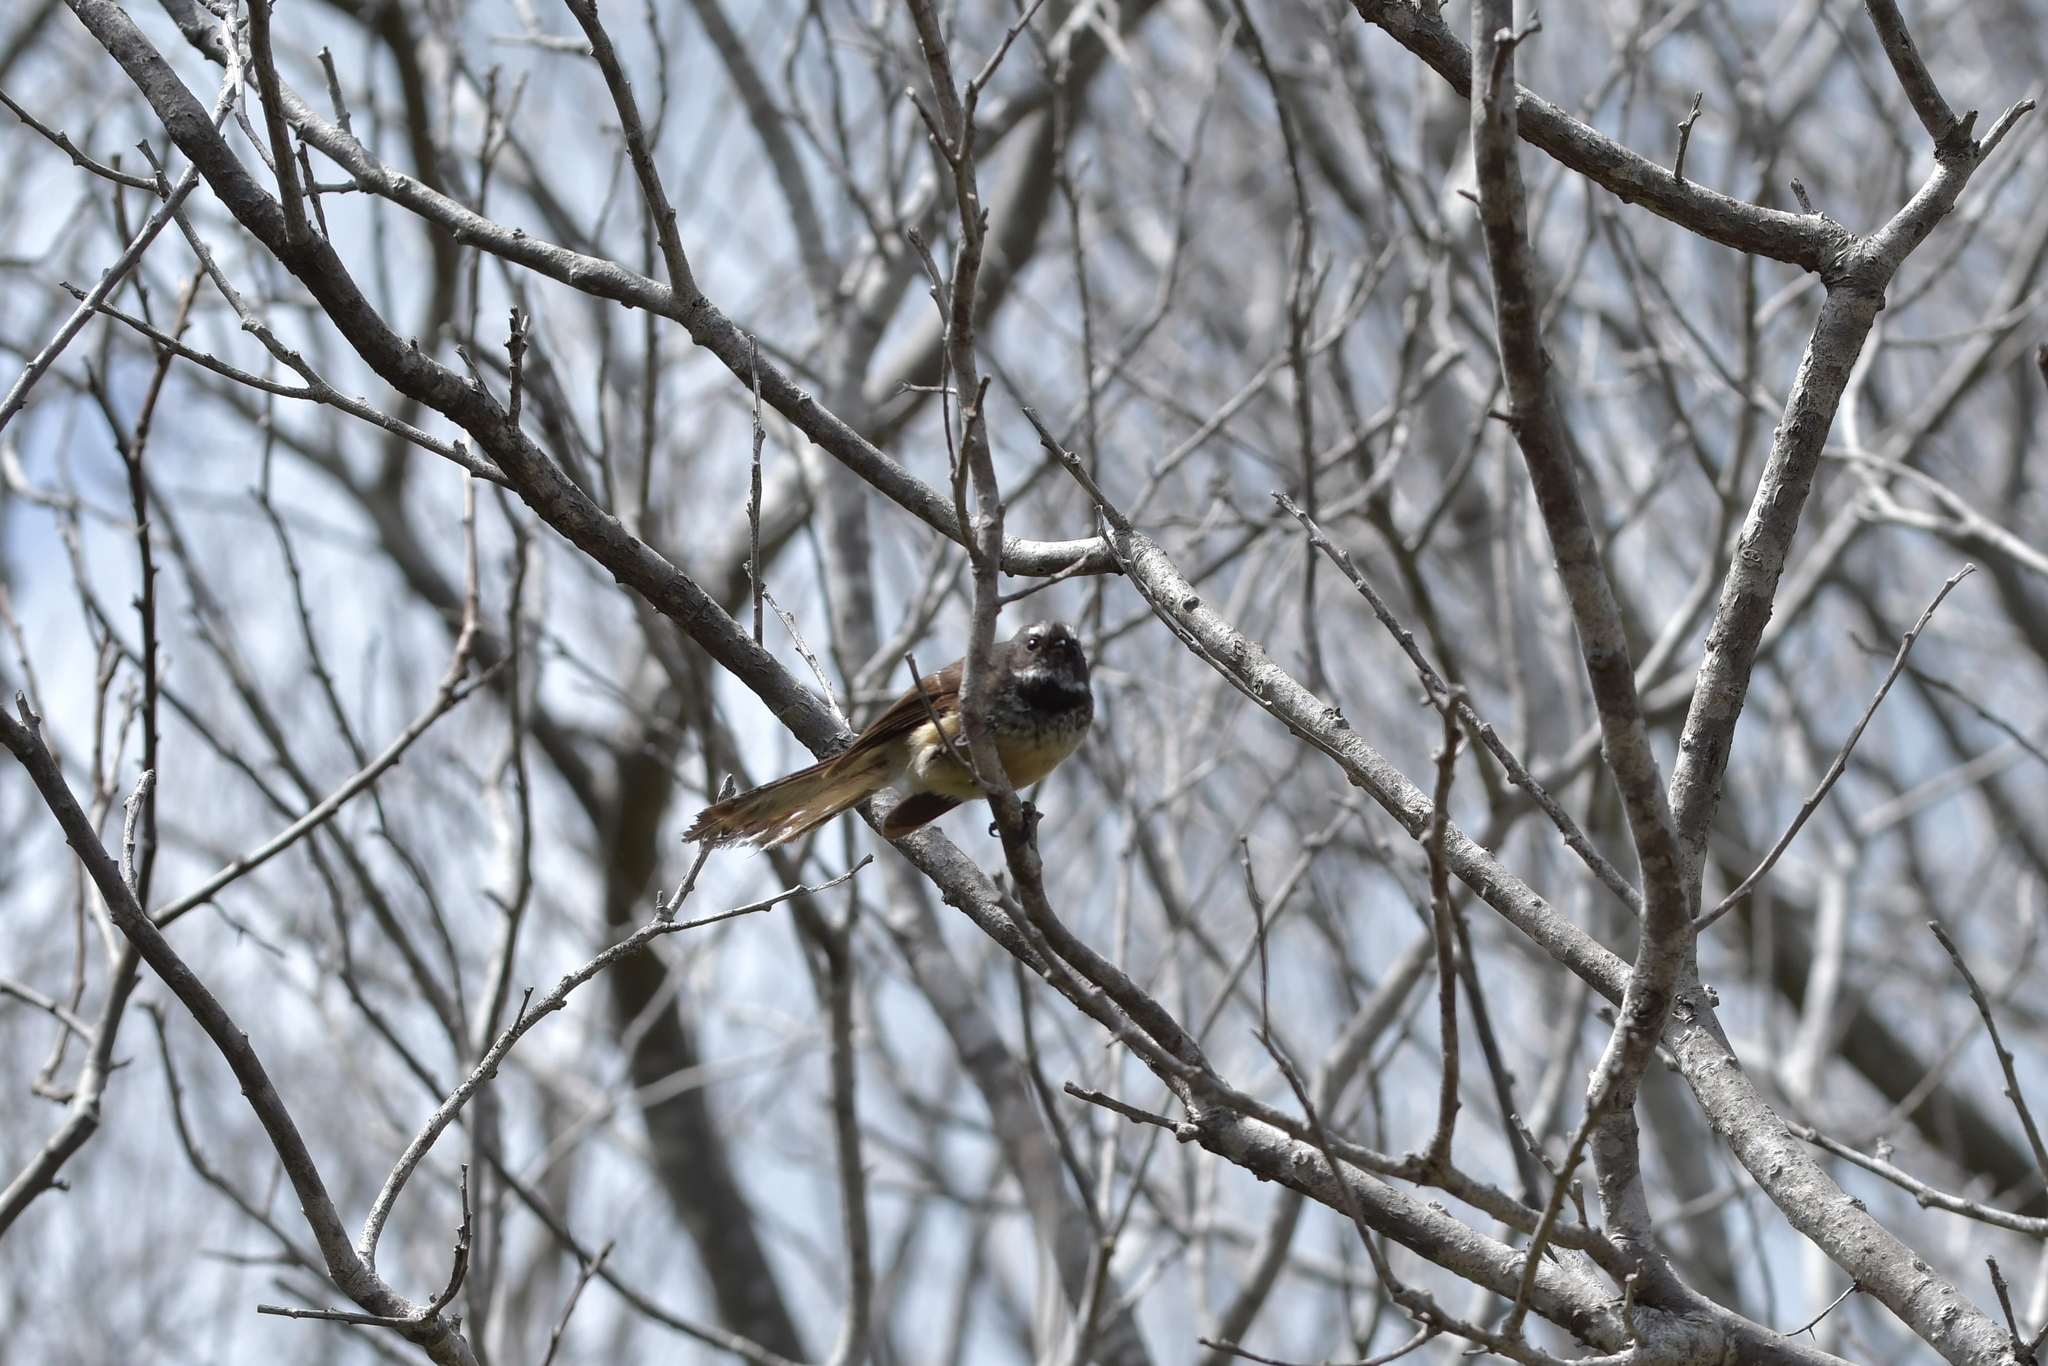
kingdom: Animalia
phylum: Chordata
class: Aves
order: Passeriformes
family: Rhipiduridae
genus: Rhipidura
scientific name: Rhipidura fuliginosa
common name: New zealand fantail
